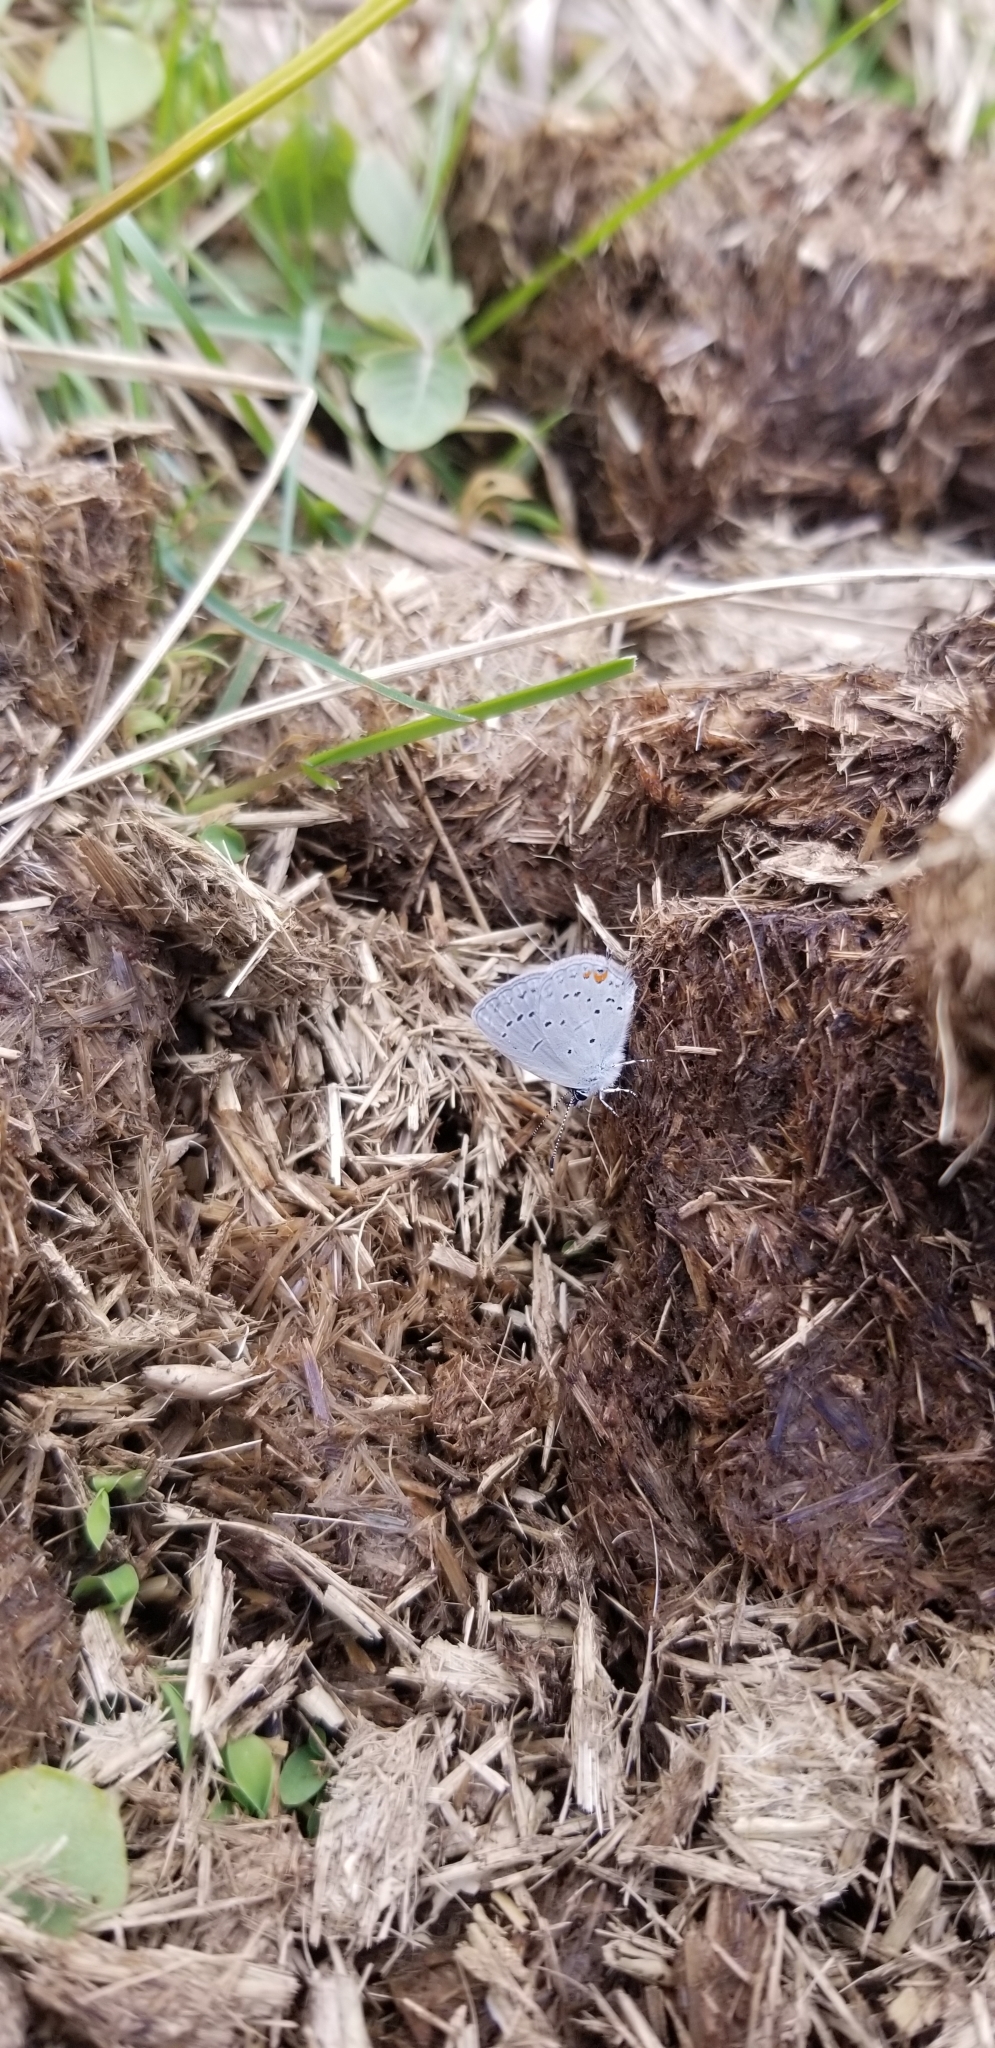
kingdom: Animalia
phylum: Arthropoda
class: Insecta
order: Lepidoptera
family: Lycaenidae
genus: Elkalyce
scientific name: Elkalyce comyntas
